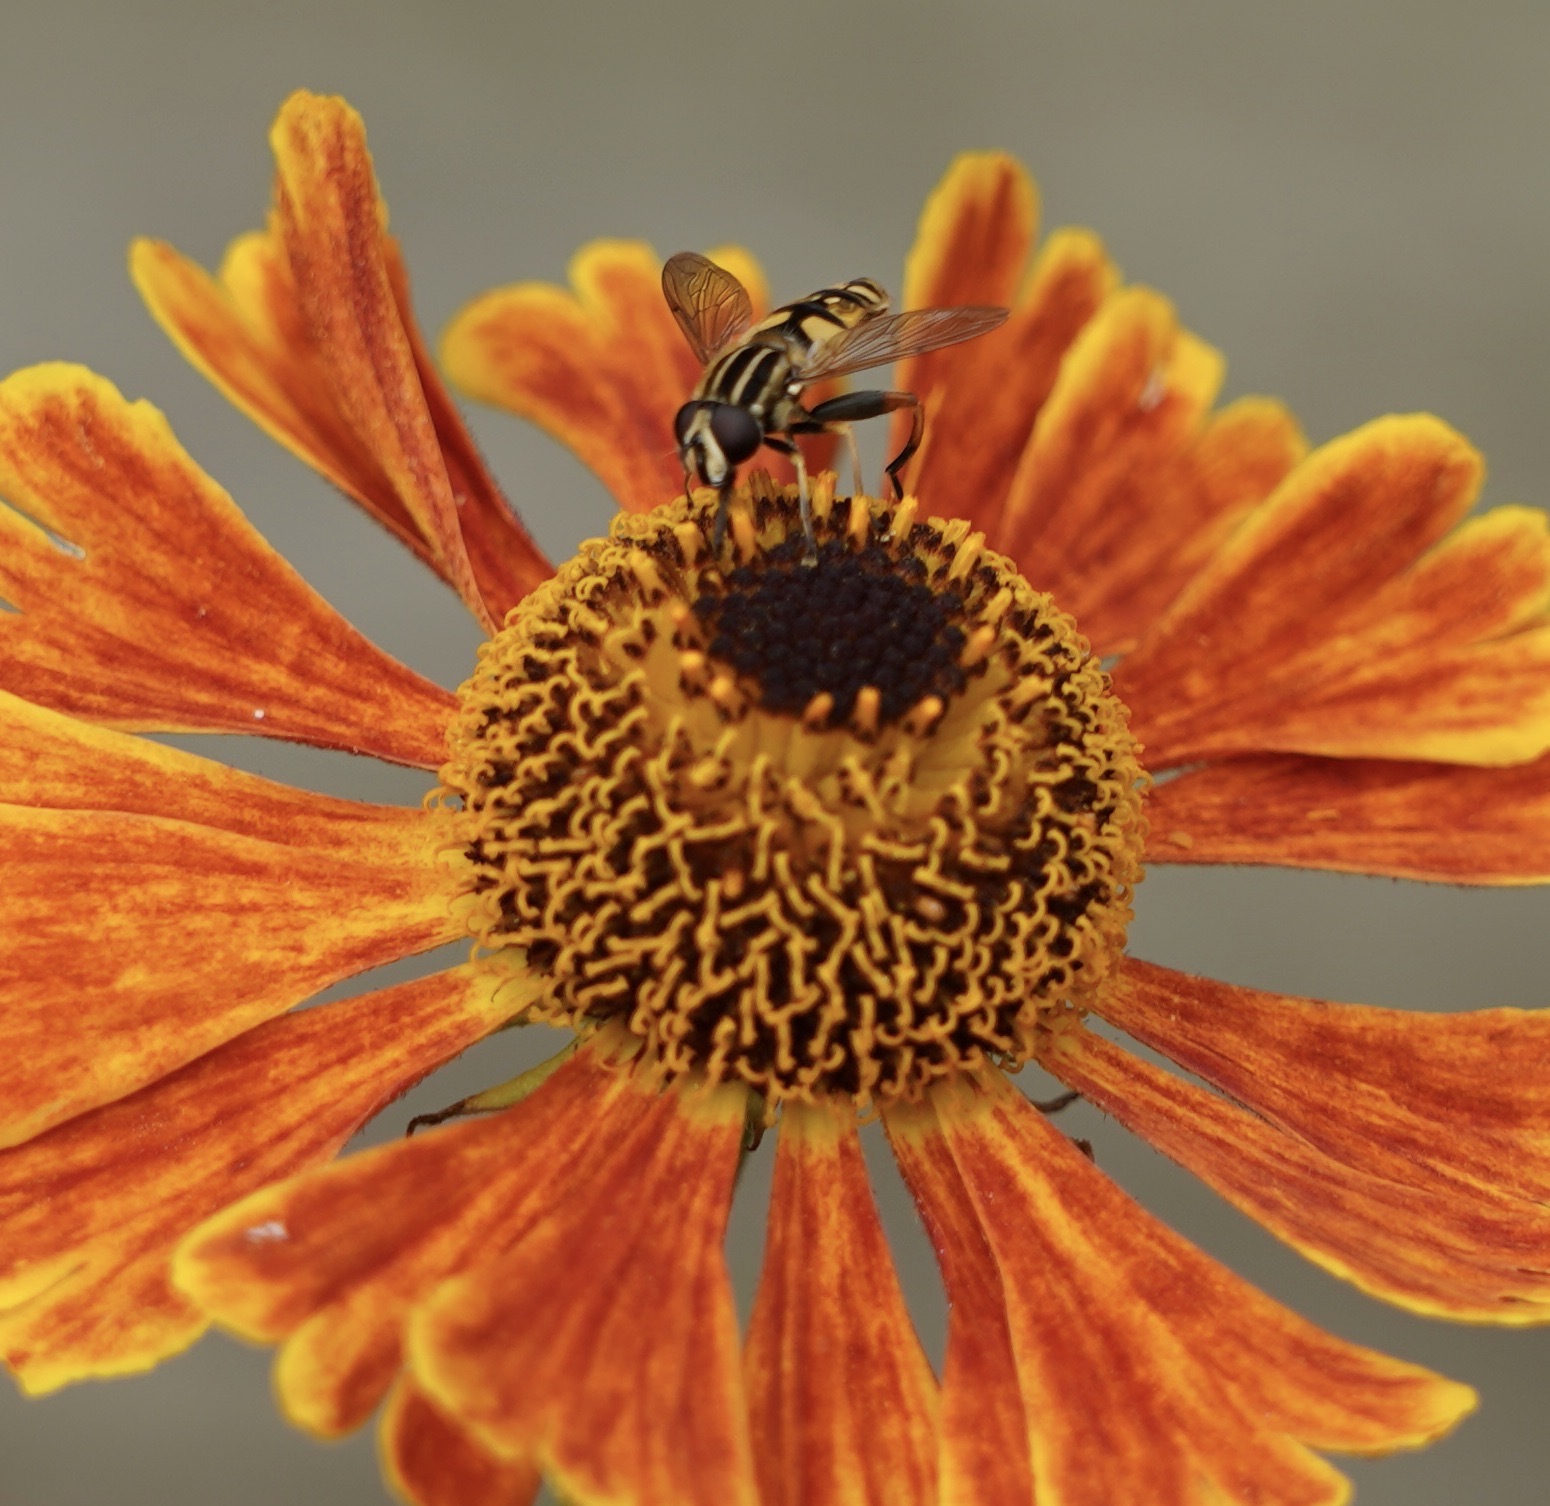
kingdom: Animalia
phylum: Arthropoda
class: Insecta
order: Diptera
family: Syrphidae
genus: Helophilus
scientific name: Helophilus pendulus
